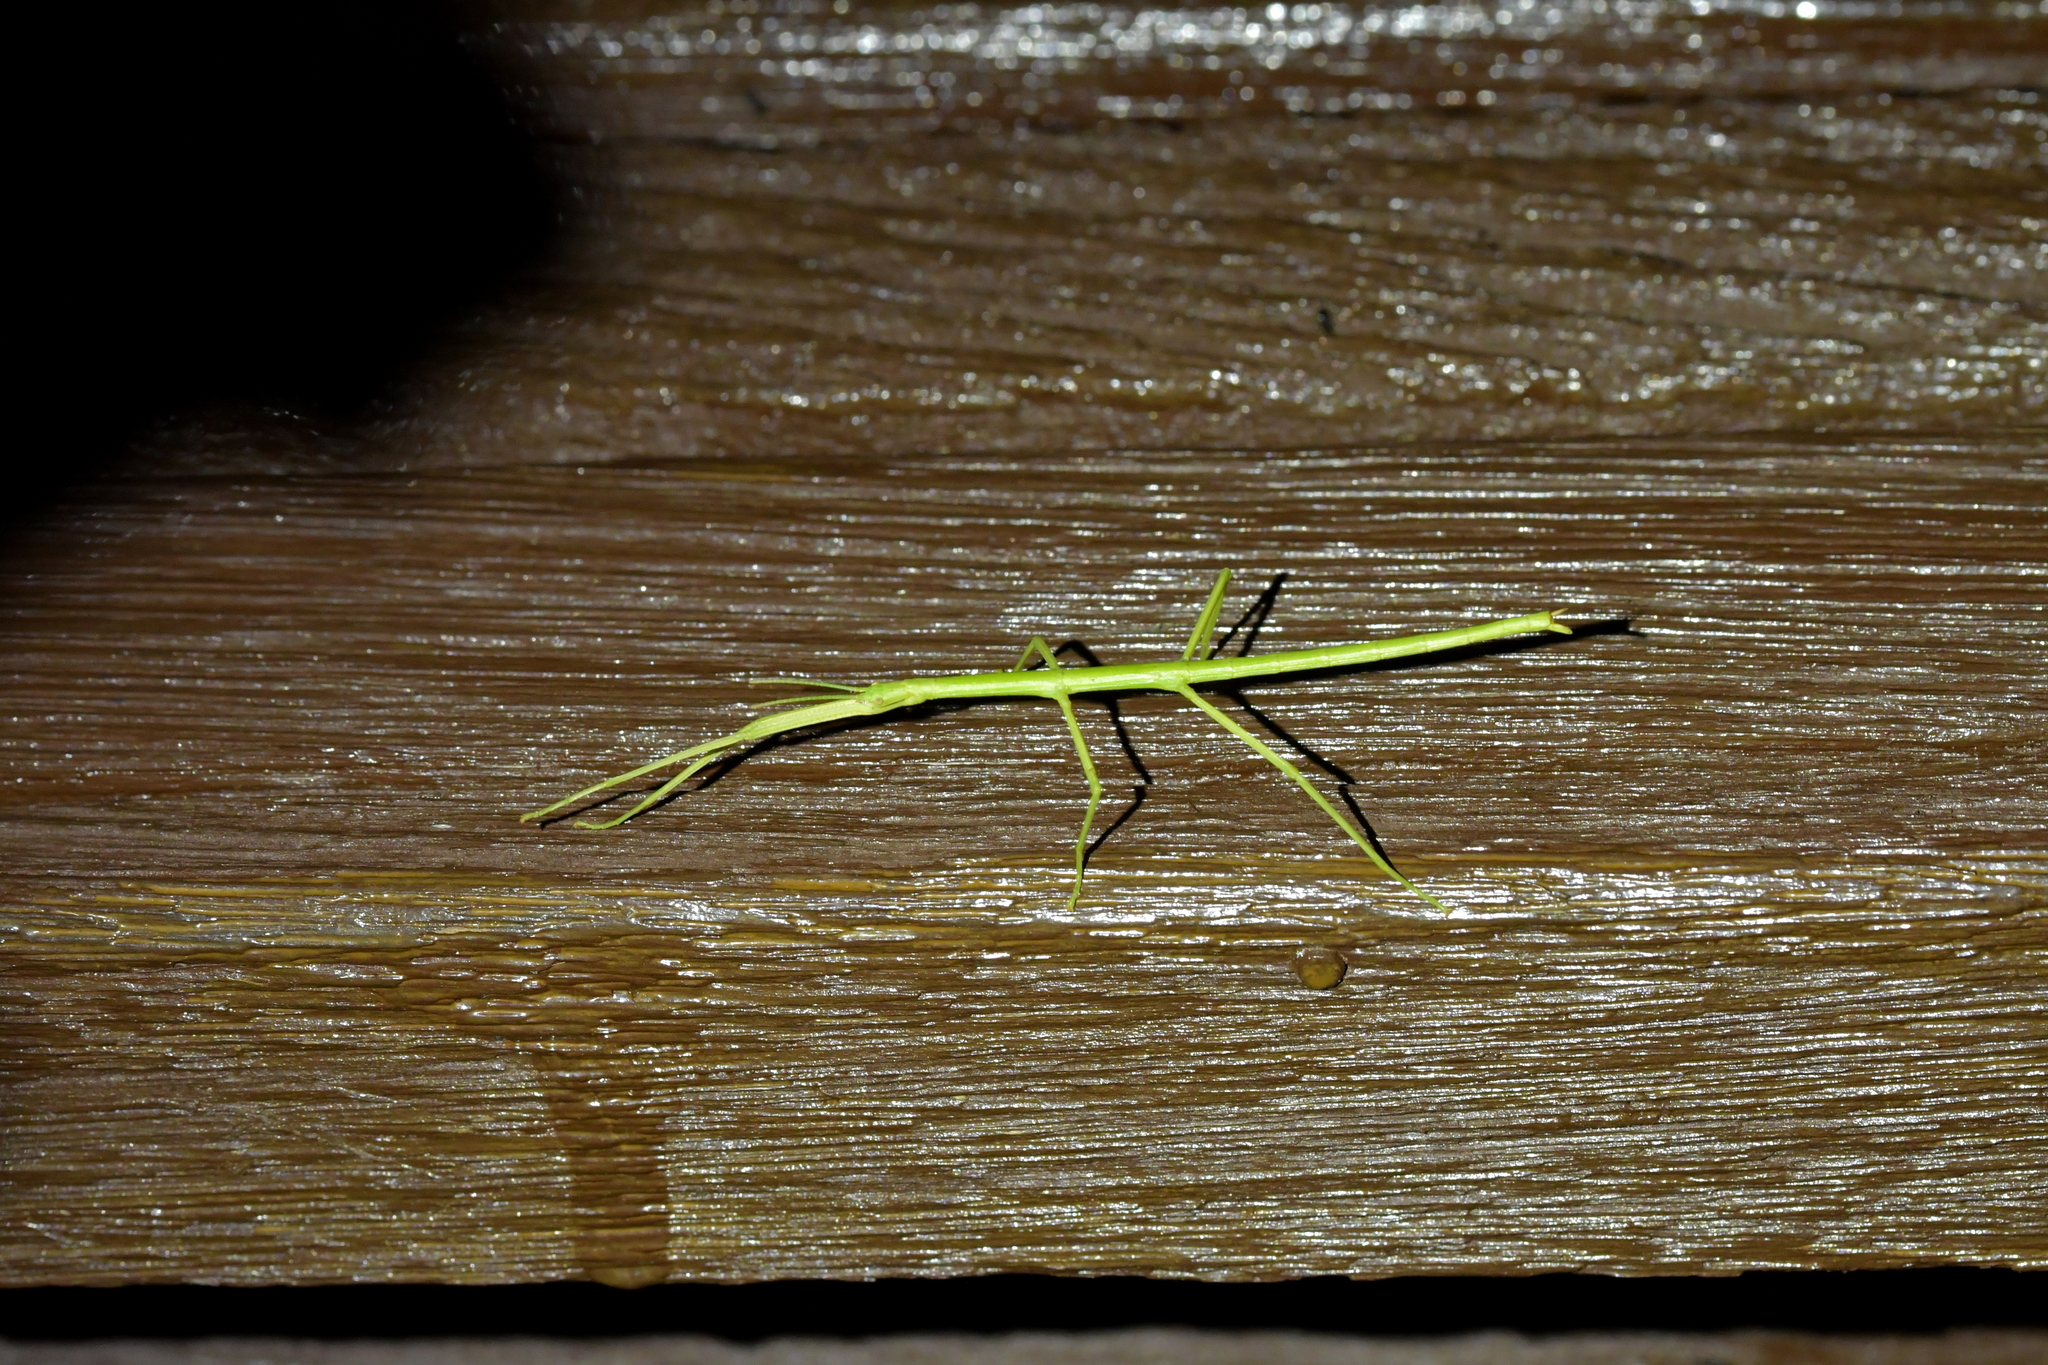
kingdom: Animalia
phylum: Arthropoda
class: Insecta
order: Phasmida
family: Phasmatidae
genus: Clitarchus
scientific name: Clitarchus hookeri
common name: Smooth stick insect
